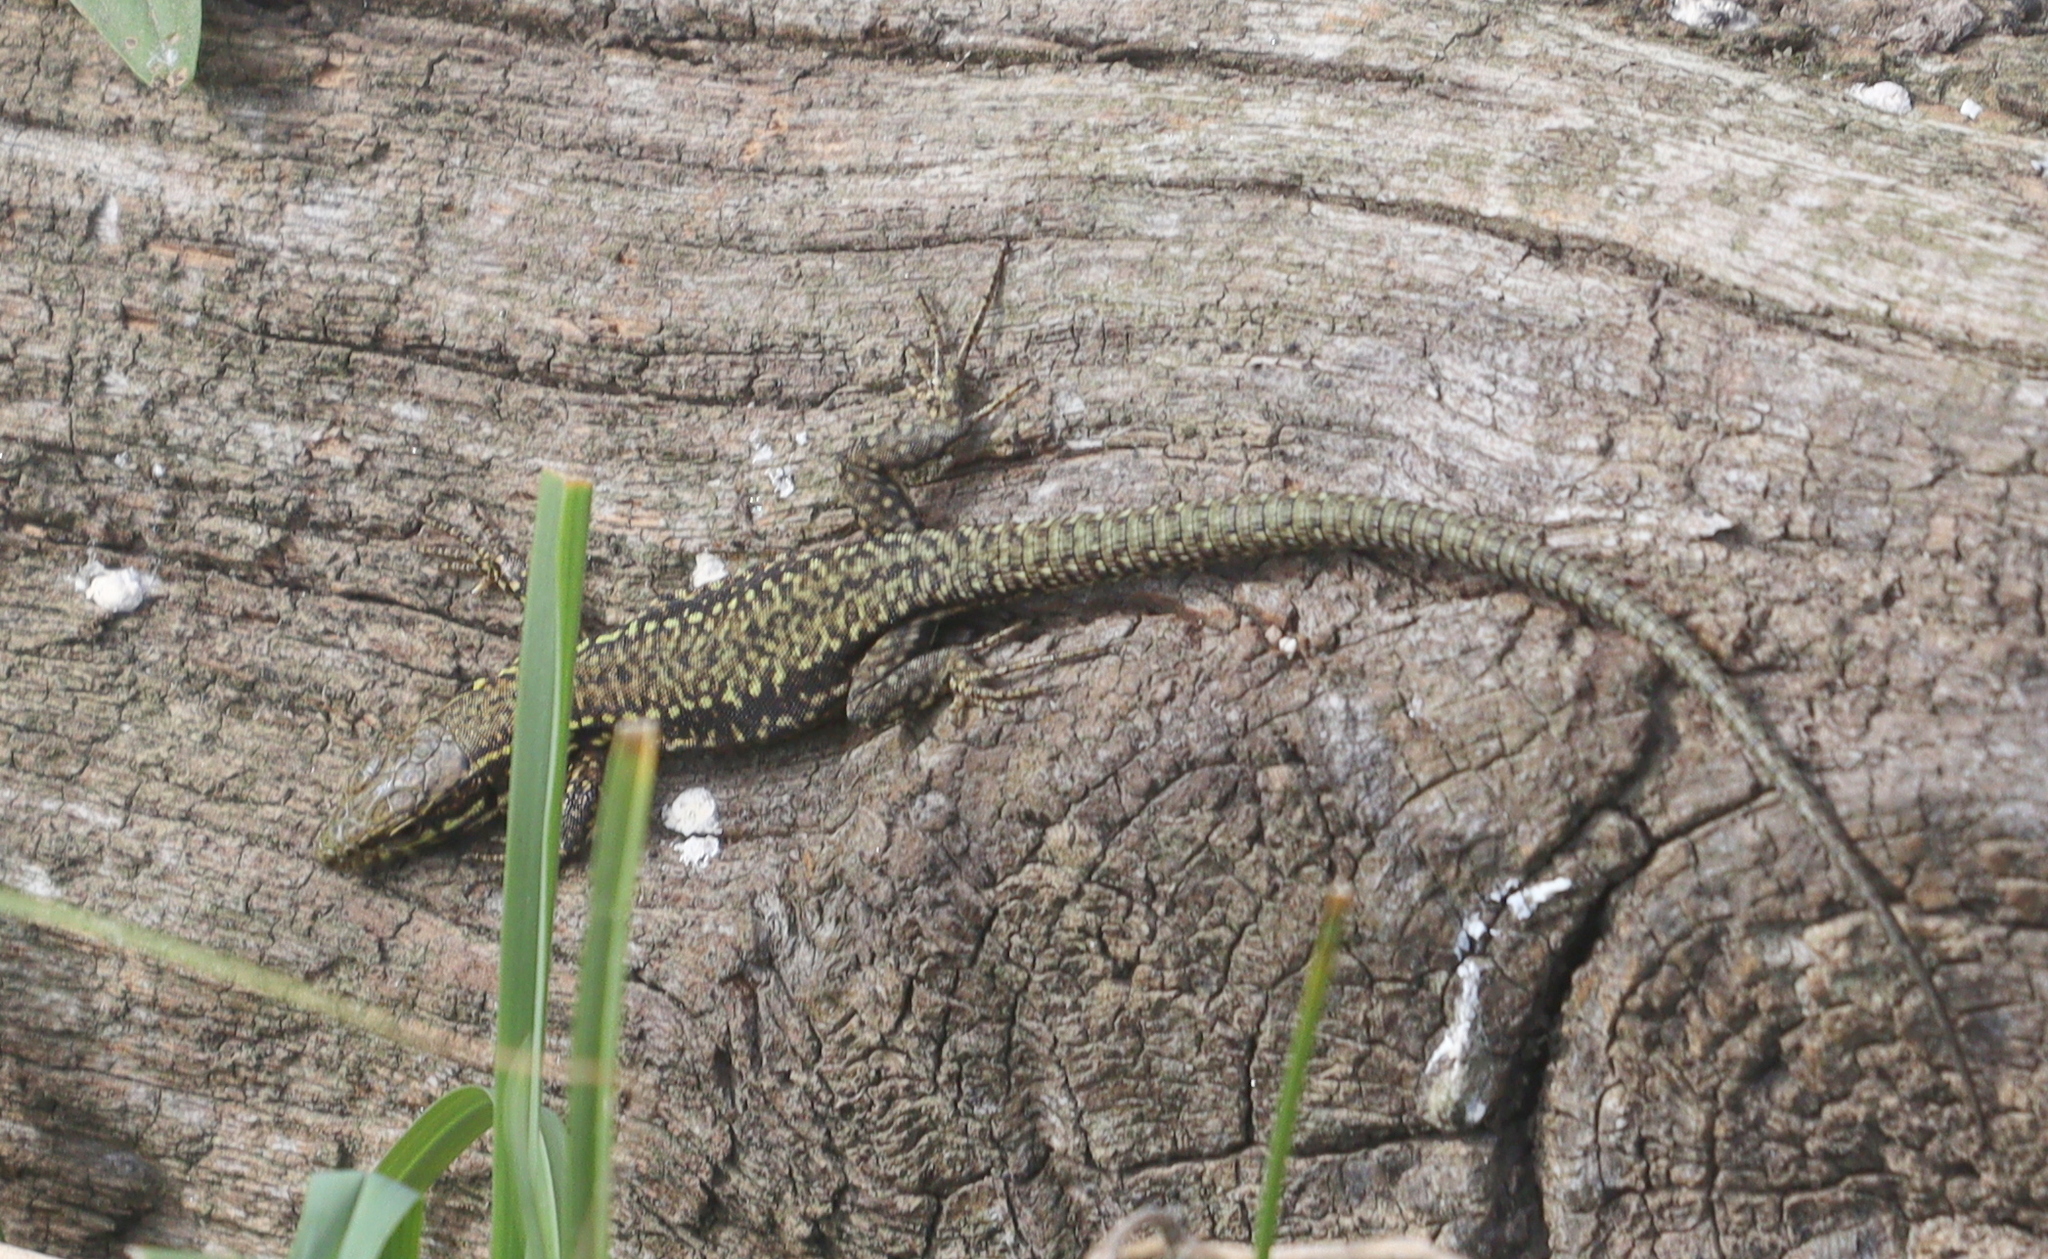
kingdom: Animalia
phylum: Chordata
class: Squamata
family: Lacertidae
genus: Podarcis
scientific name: Podarcis muralis
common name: Common wall lizard
